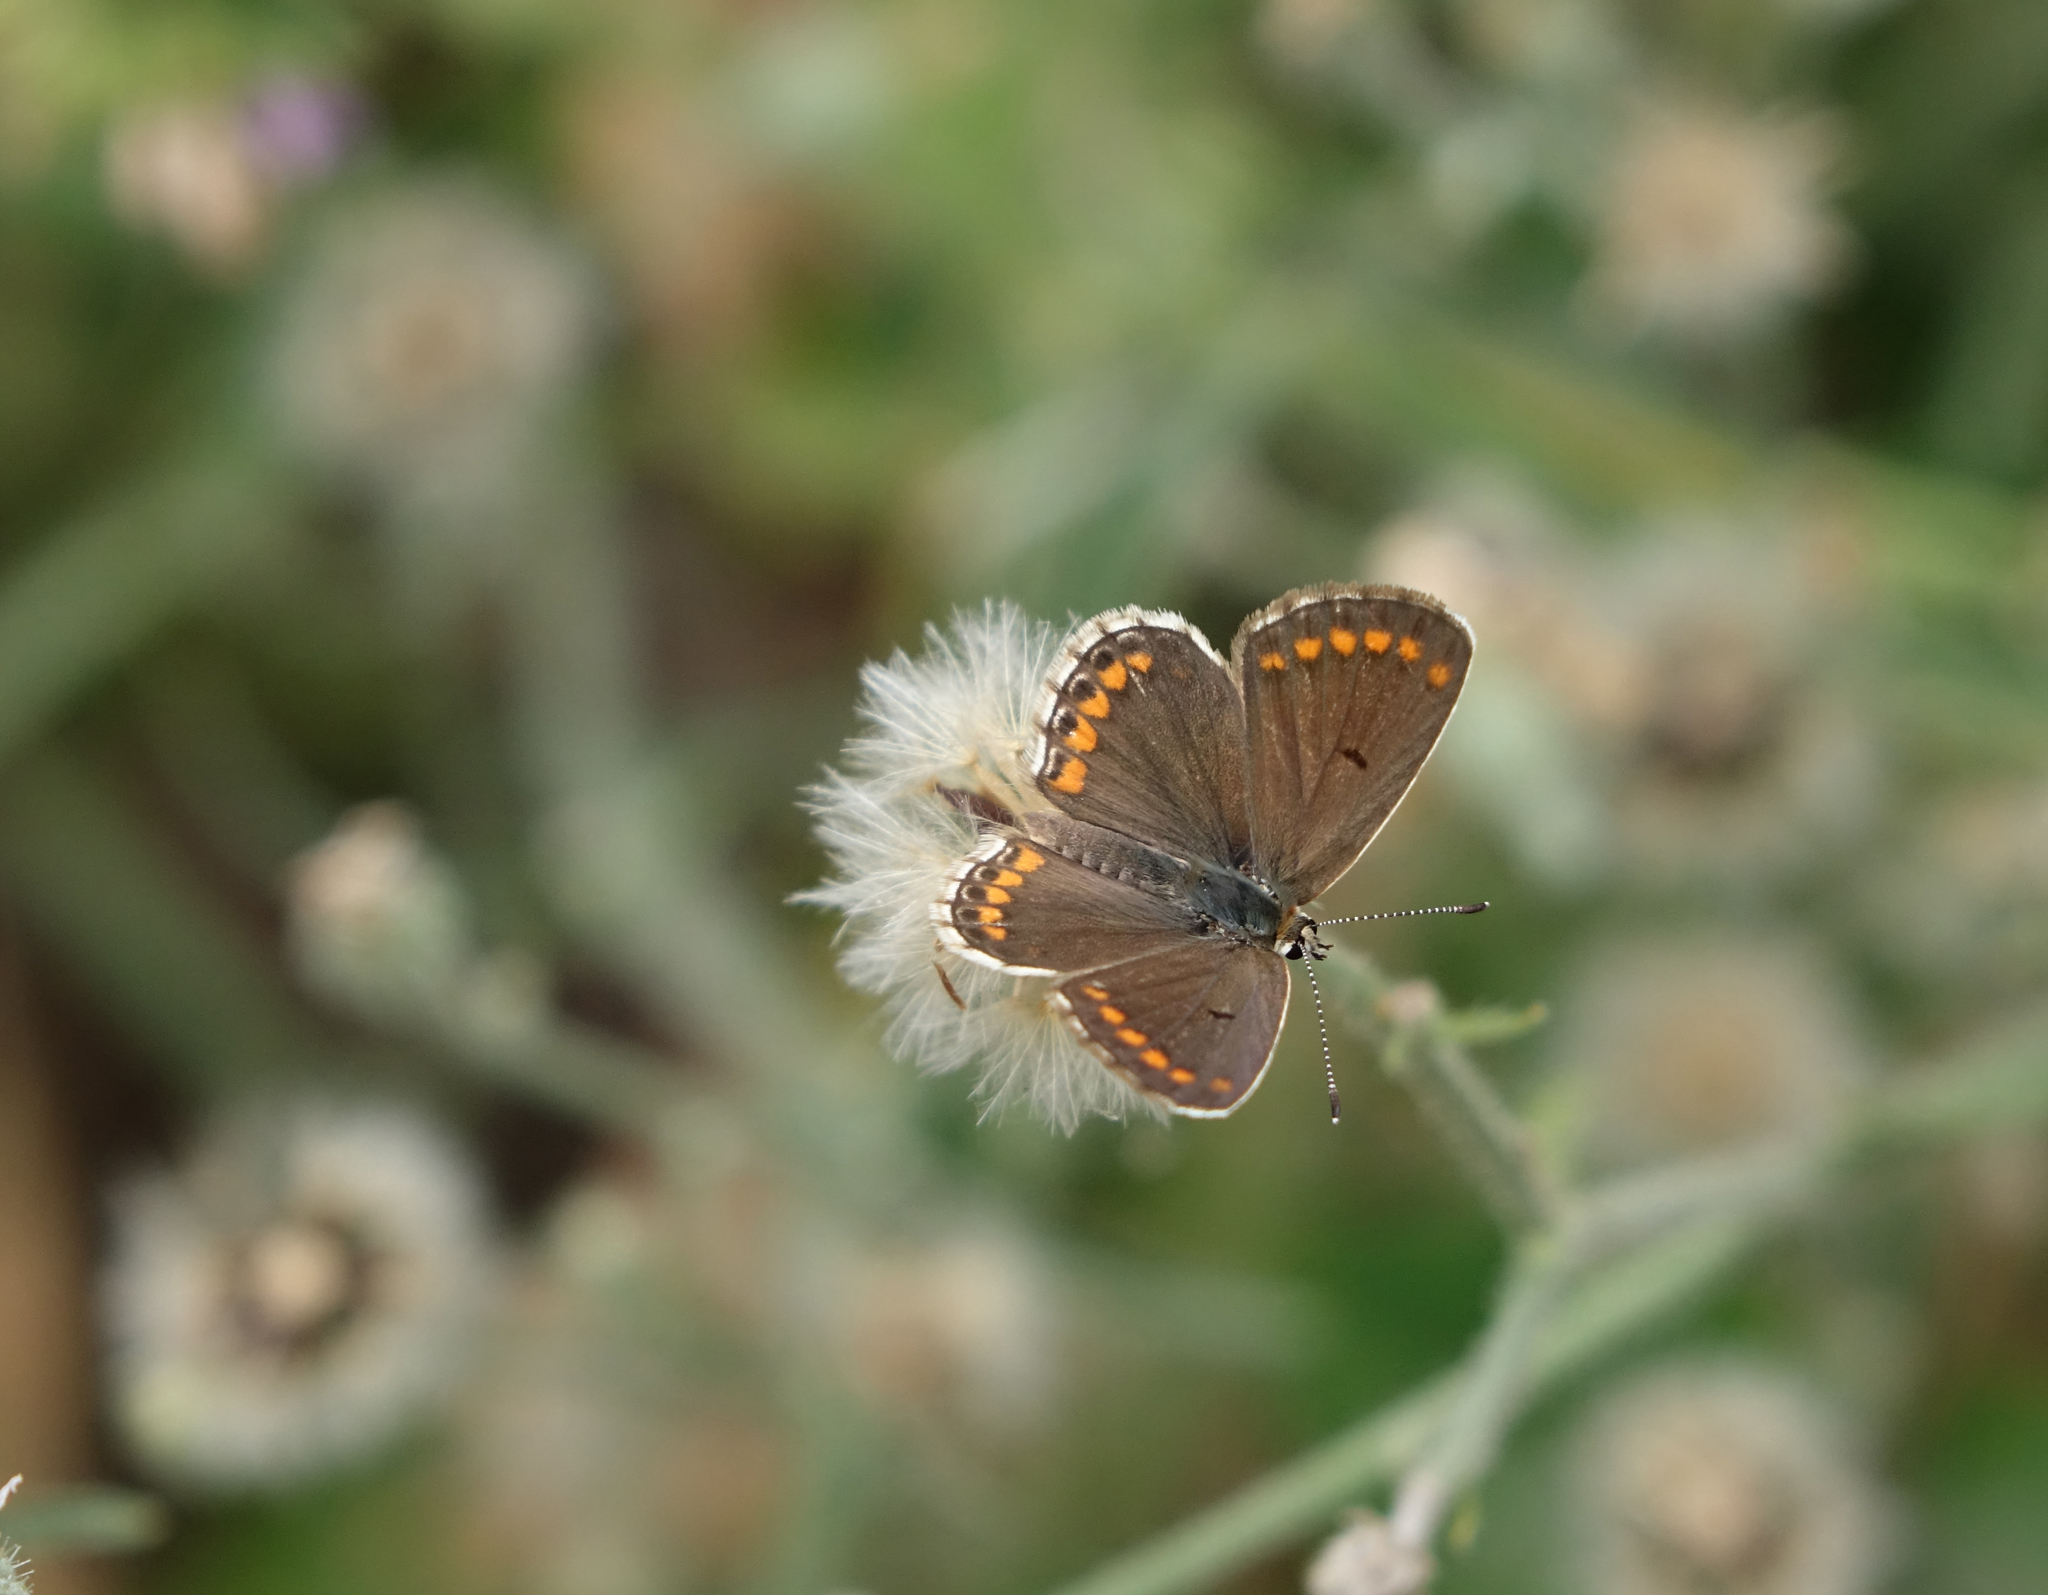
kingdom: Animalia
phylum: Arthropoda
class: Insecta
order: Lepidoptera
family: Lycaenidae
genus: Aricia
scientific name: Aricia agestis
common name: Brown argus
